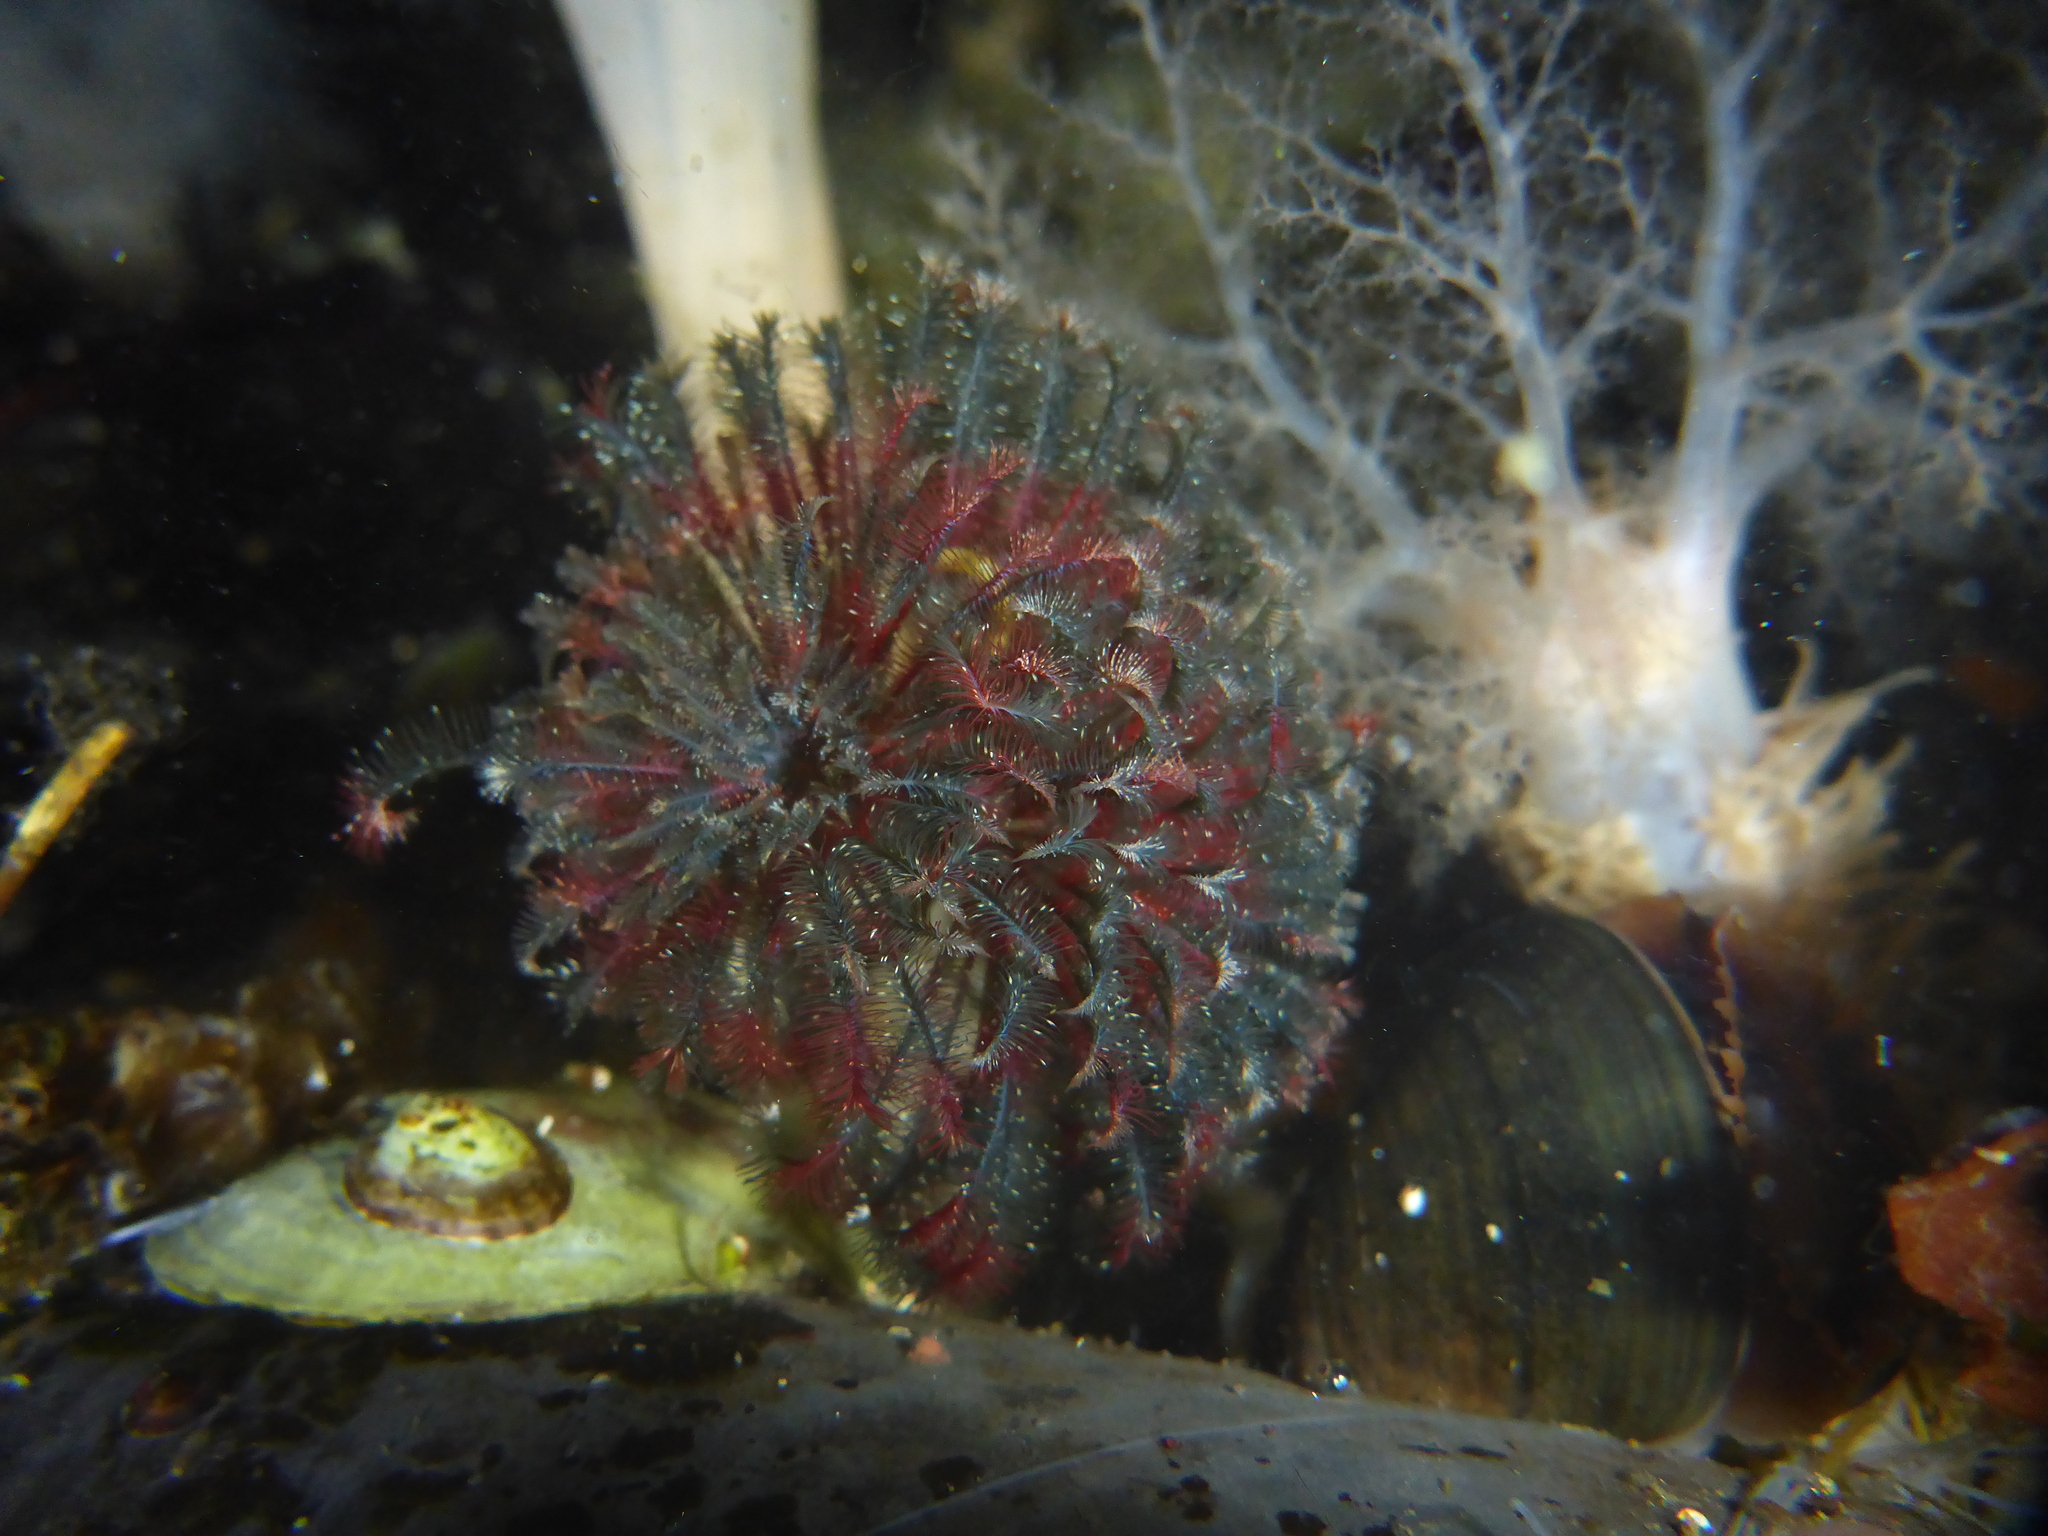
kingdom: Animalia
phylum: Annelida
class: Polychaeta
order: Sabellida
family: Sabellidae
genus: Eudistylia
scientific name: Eudistylia vancouveri
